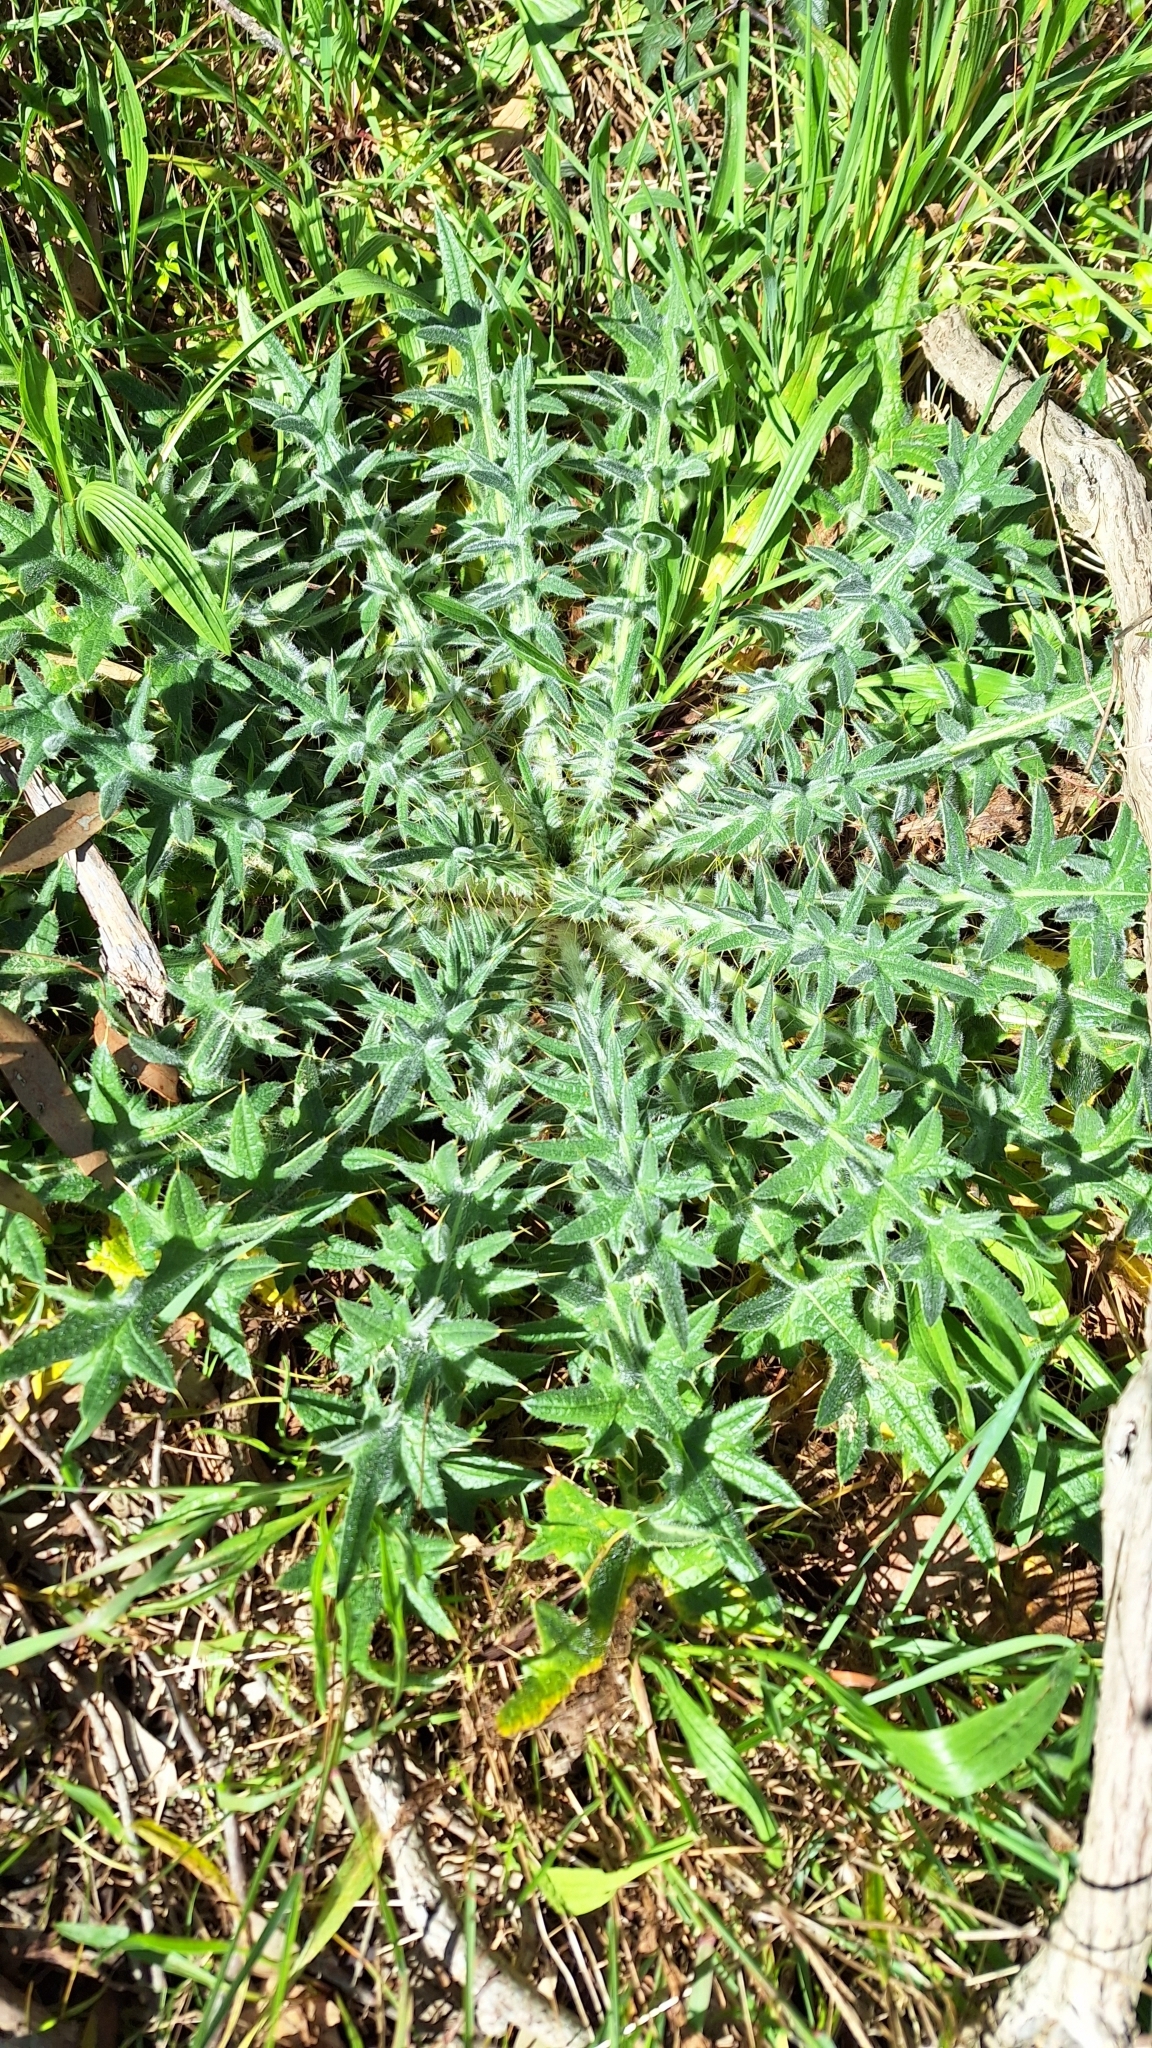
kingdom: Plantae
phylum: Tracheophyta
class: Magnoliopsida
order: Asterales
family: Asteraceae
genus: Cirsium
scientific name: Cirsium vulgare
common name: Bull thistle
